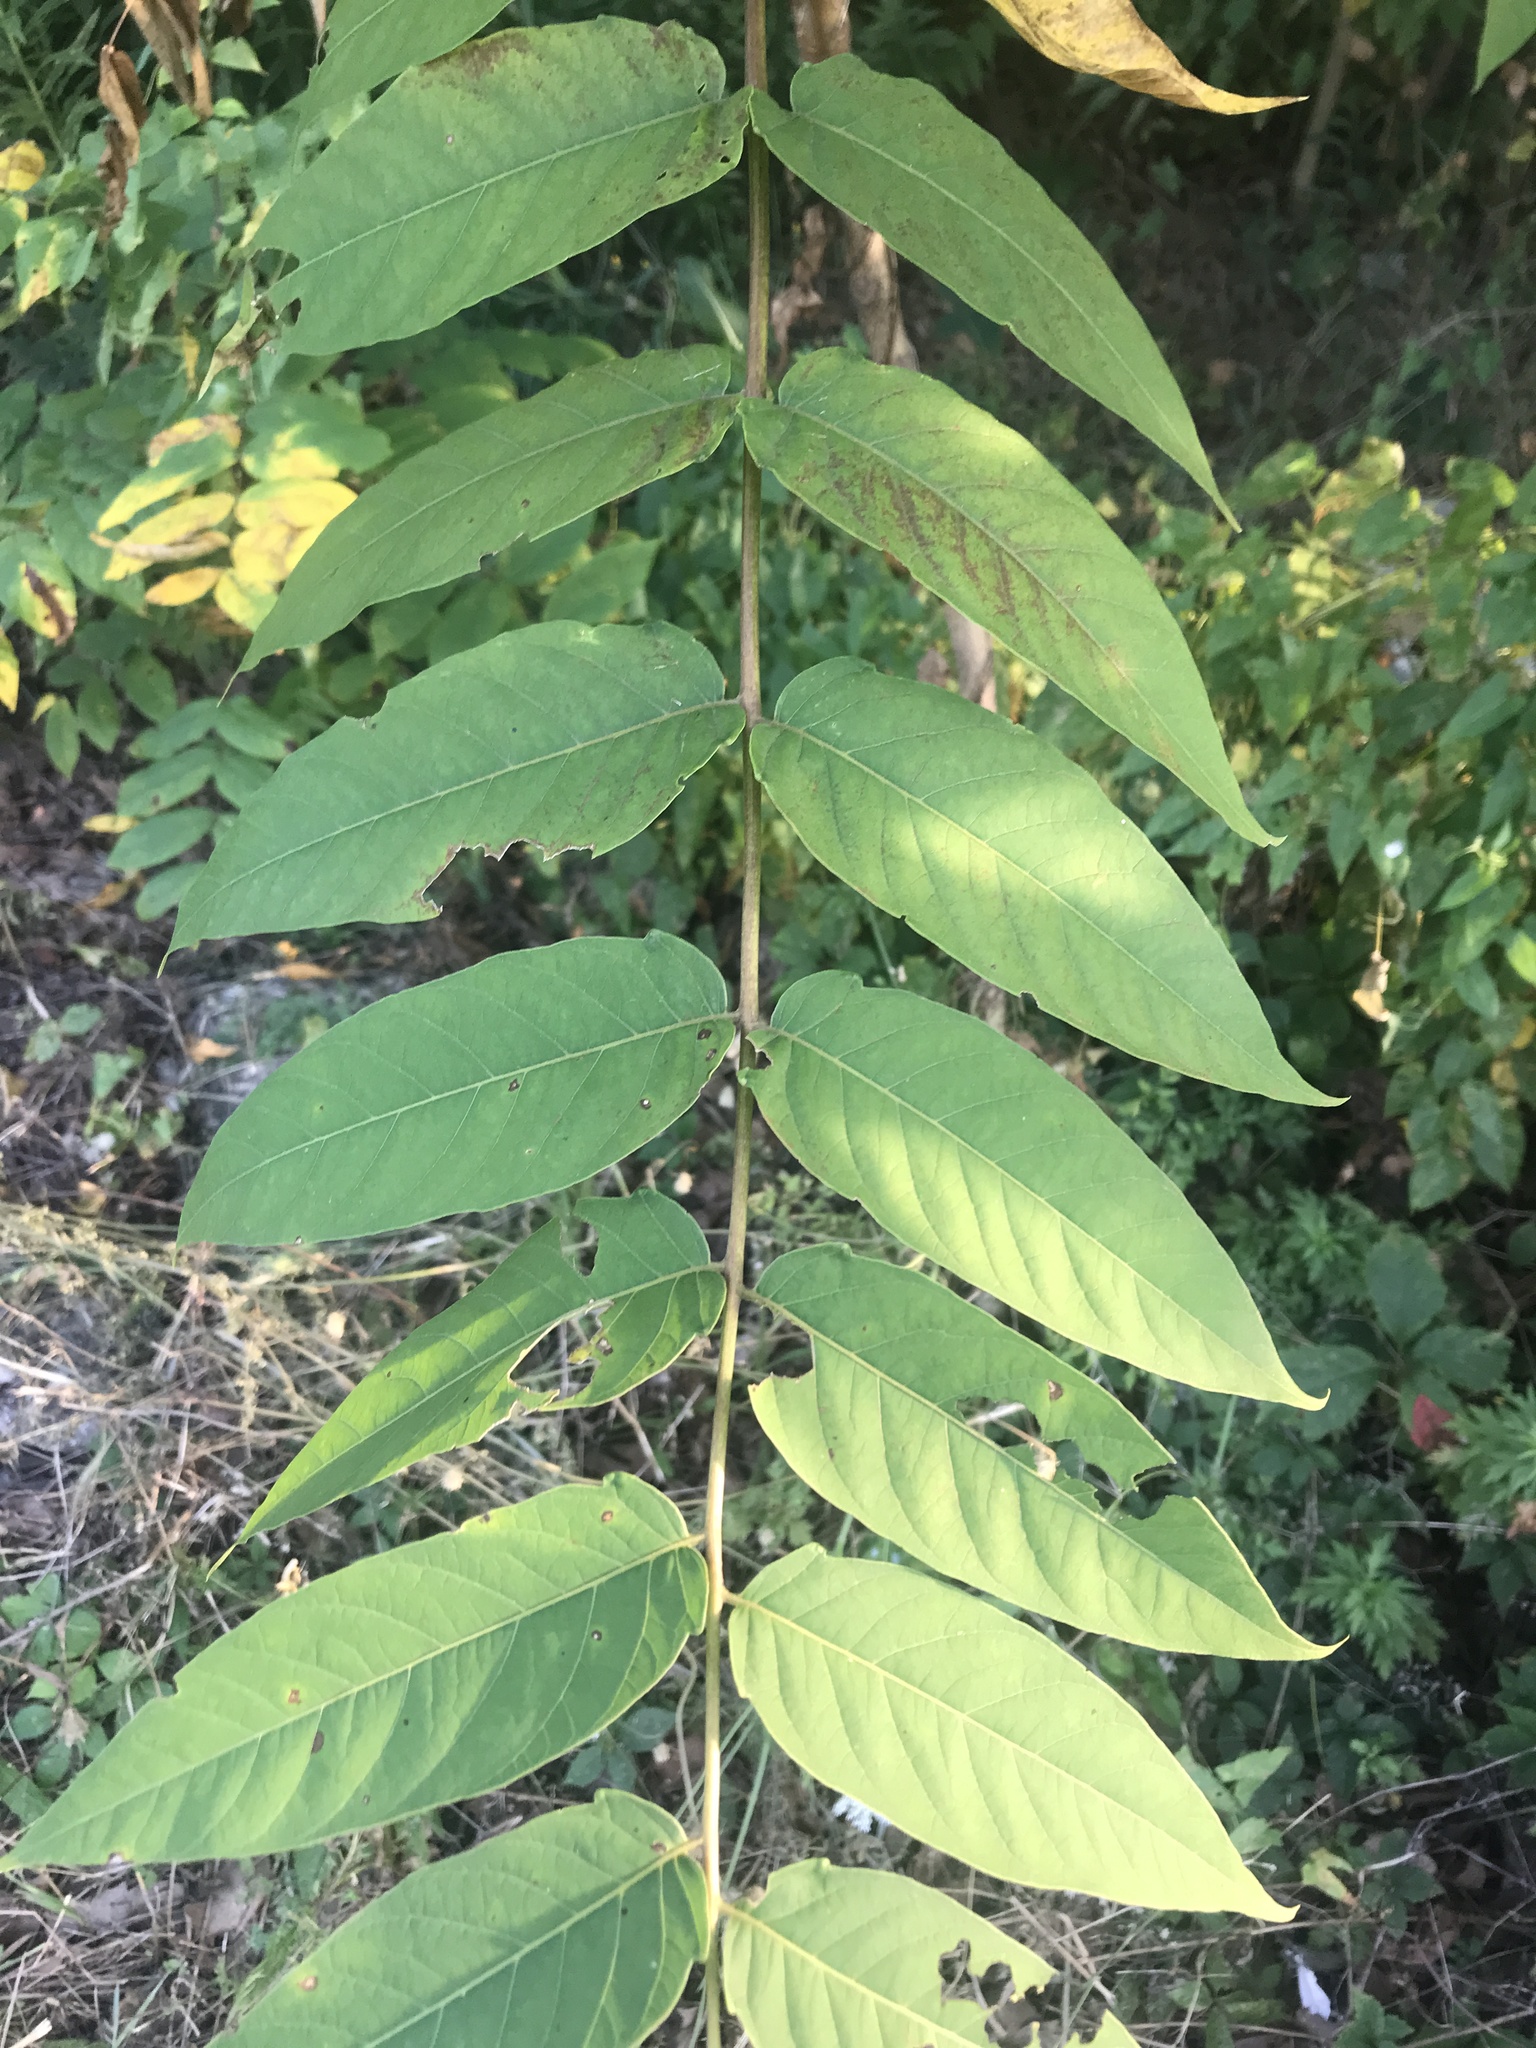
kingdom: Plantae
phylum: Tracheophyta
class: Magnoliopsida
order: Sapindales
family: Simaroubaceae
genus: Ailanthus
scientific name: Ailanthus altissima
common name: Tree-of-heaven
